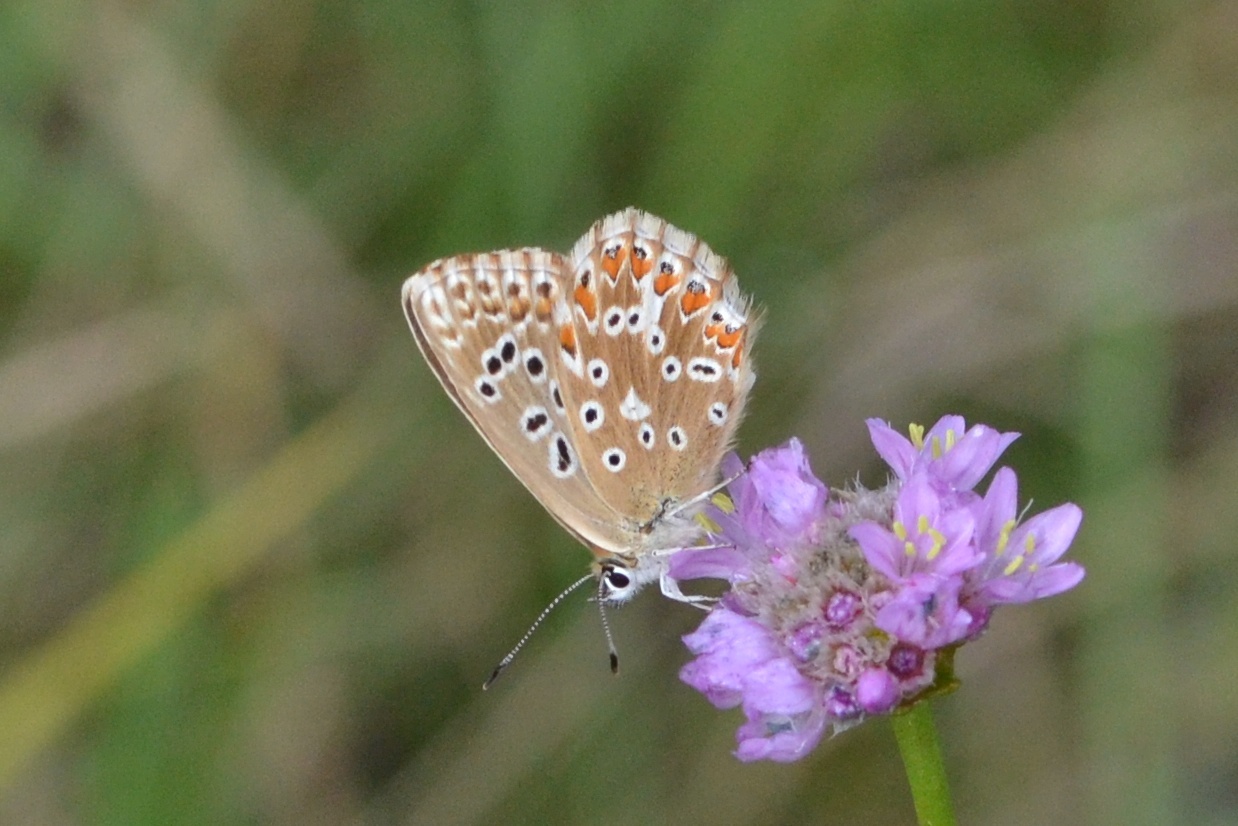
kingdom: Animalia
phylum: Arthropoda
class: Insecta
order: Lepidoptera
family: Lycaenidae
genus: Lysandra
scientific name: Lysandra coridon
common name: Chalkhill blue
